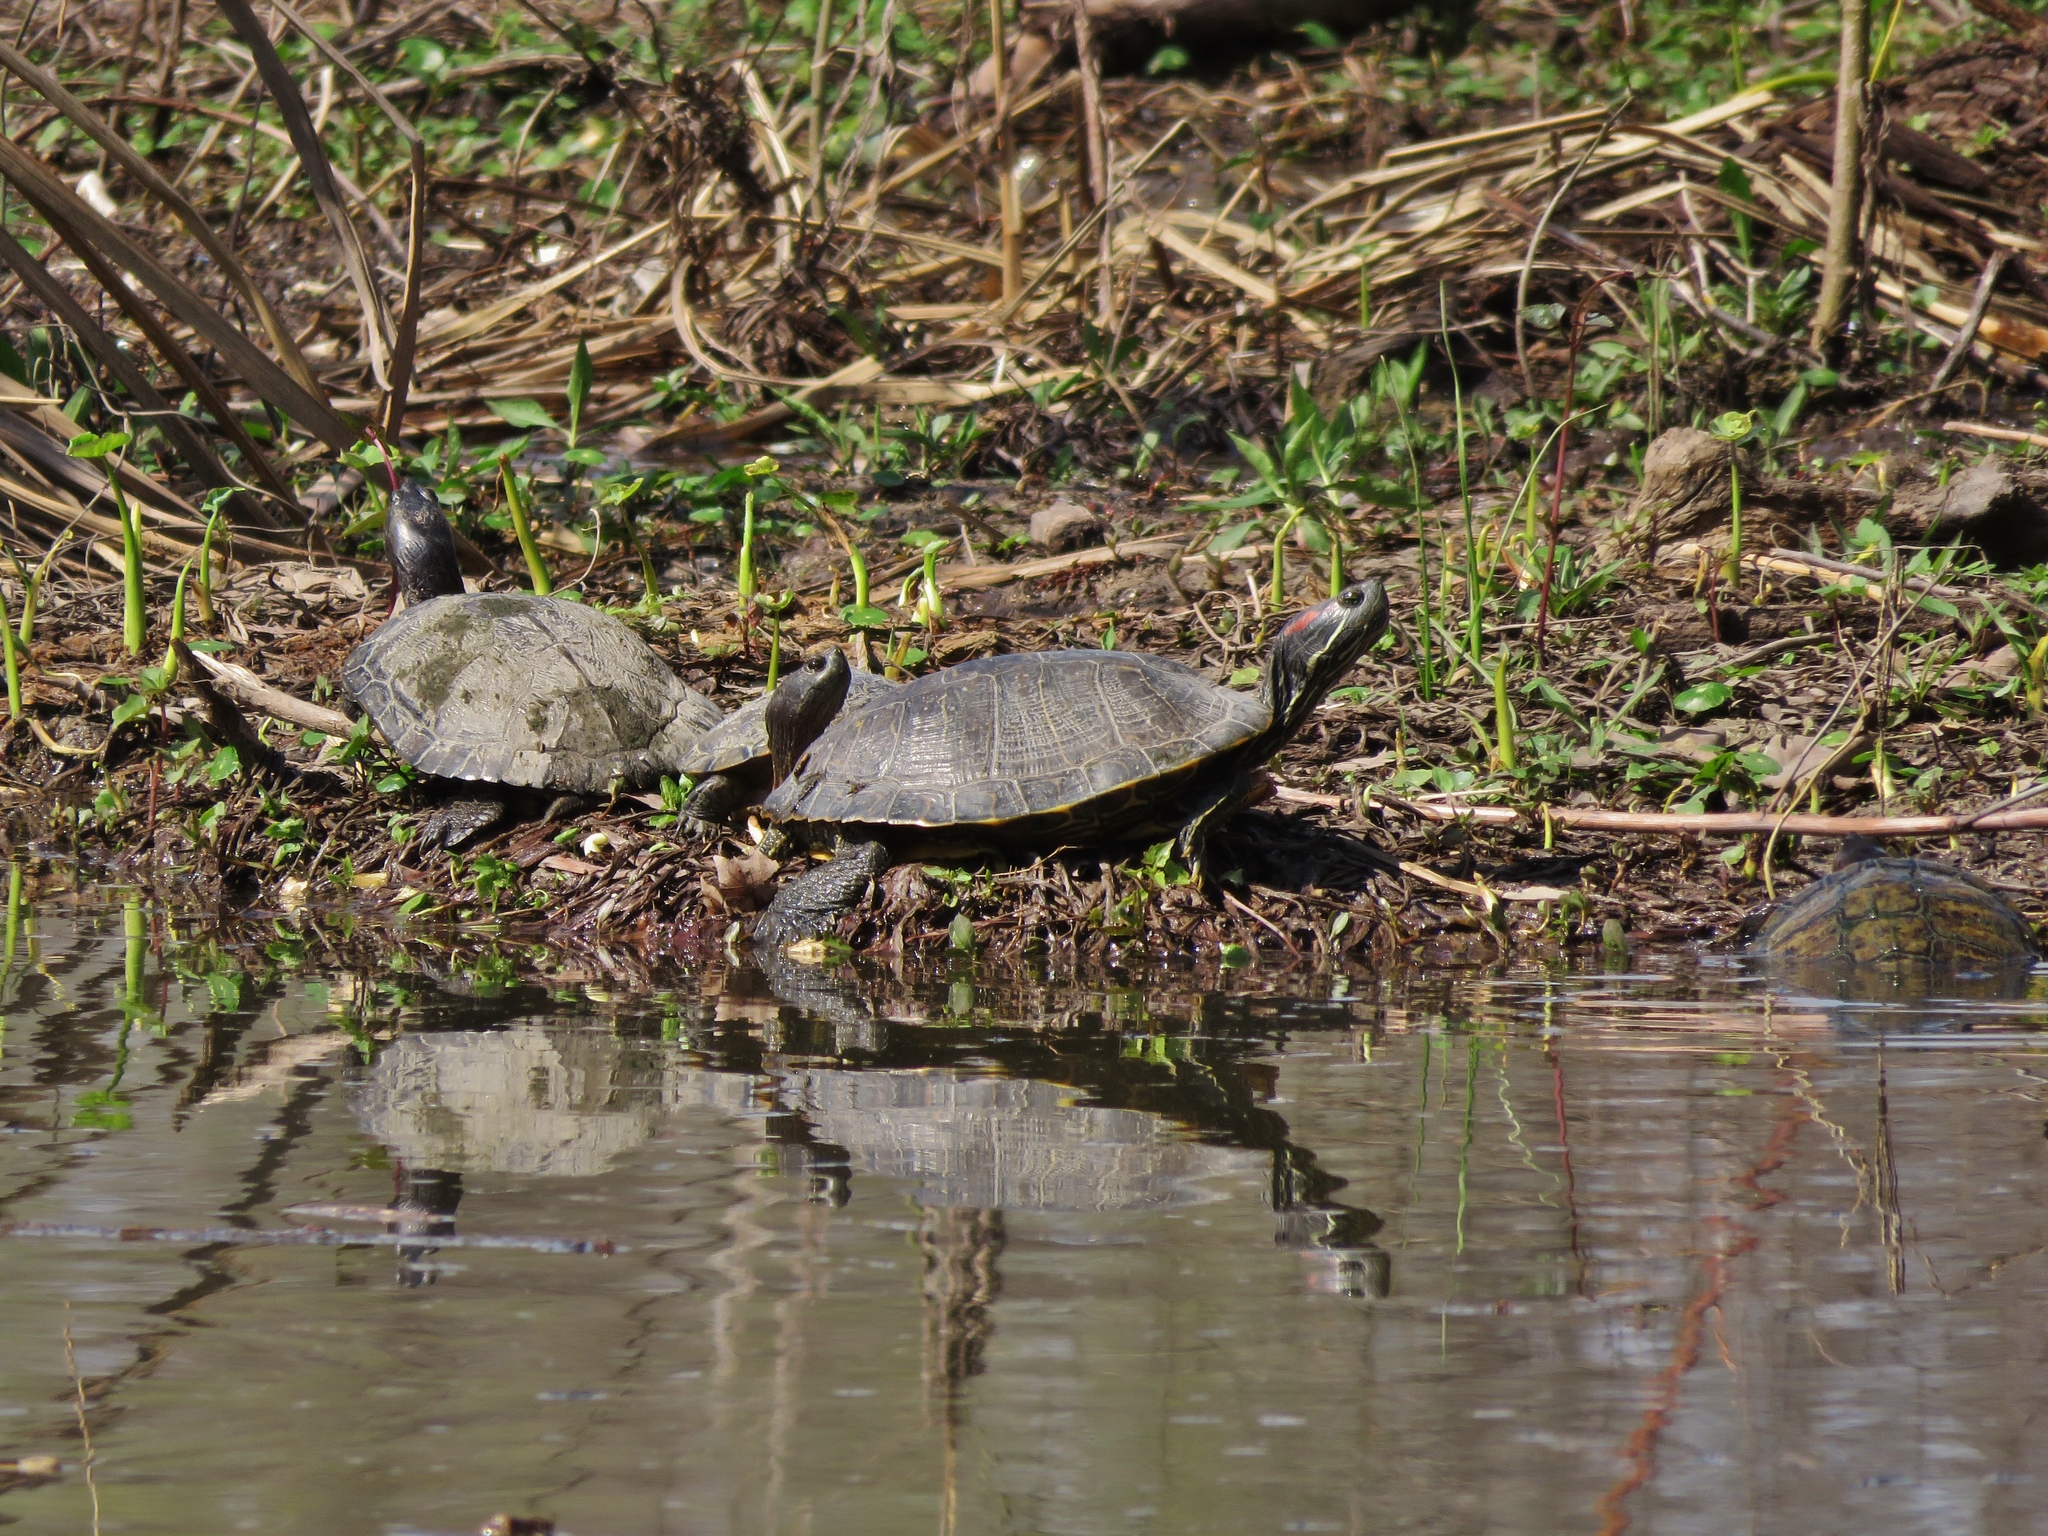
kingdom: Animalia
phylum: Chordata
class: Testudines
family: Emydidae
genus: Trachemys
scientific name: Trachemys scripta
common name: Slider
